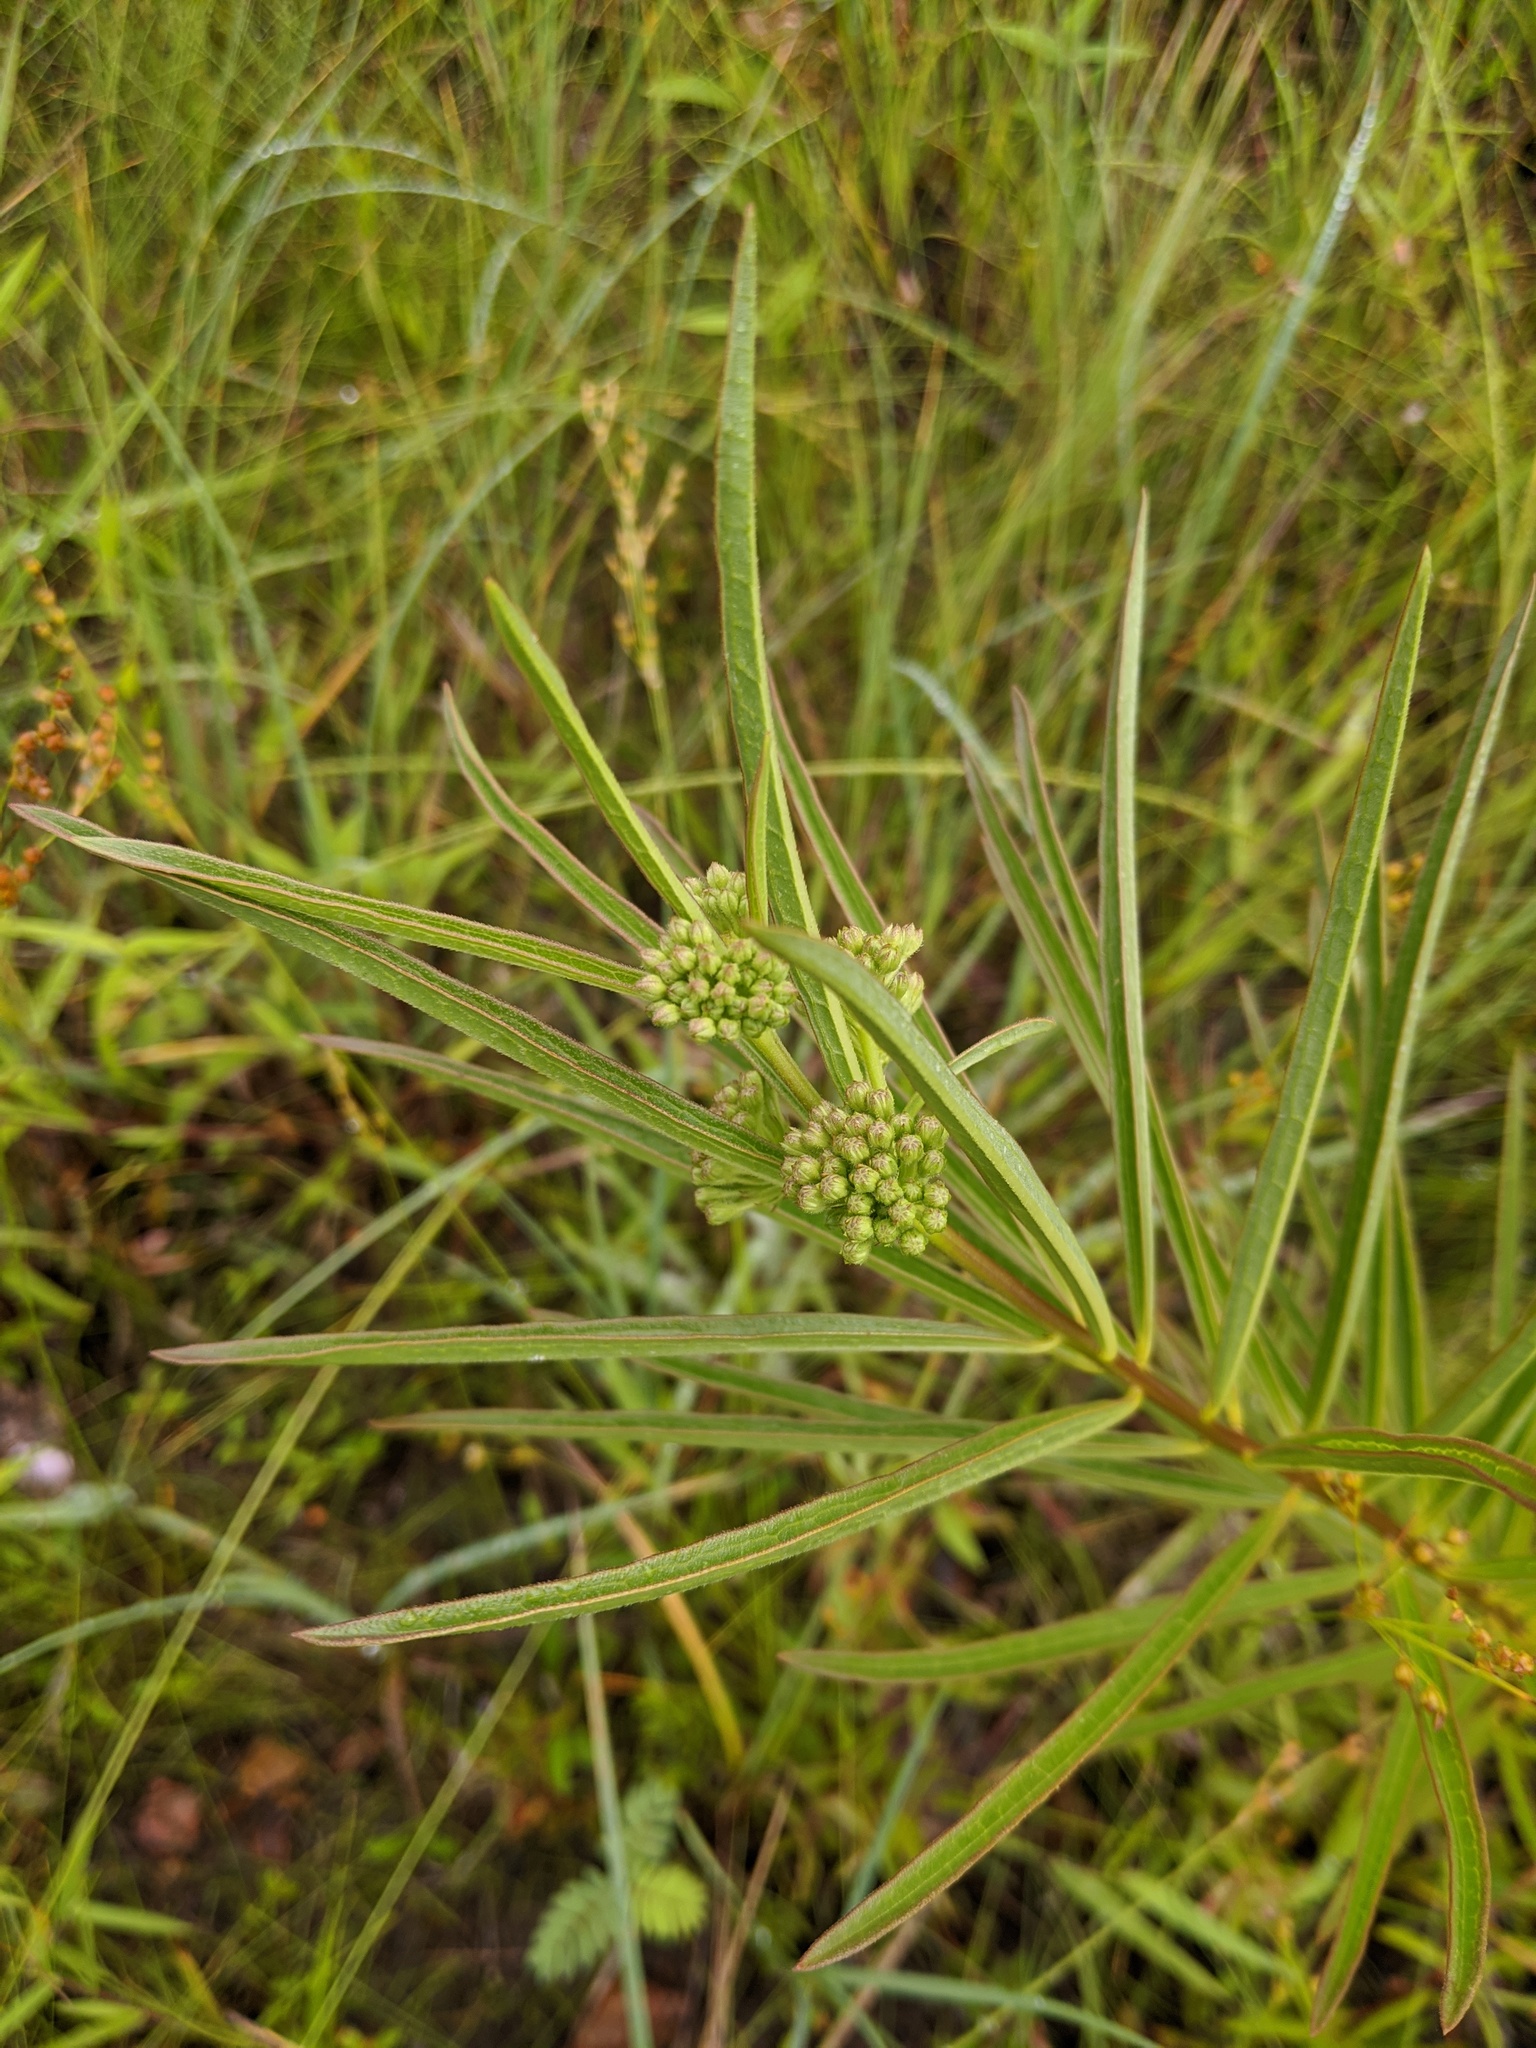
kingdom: Plantae
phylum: Tracheophyta
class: Magnoliopsida
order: Gentianales
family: Apocynaceae
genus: Asclepias
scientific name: Asclepias hirtella
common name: Prairie milkweed
